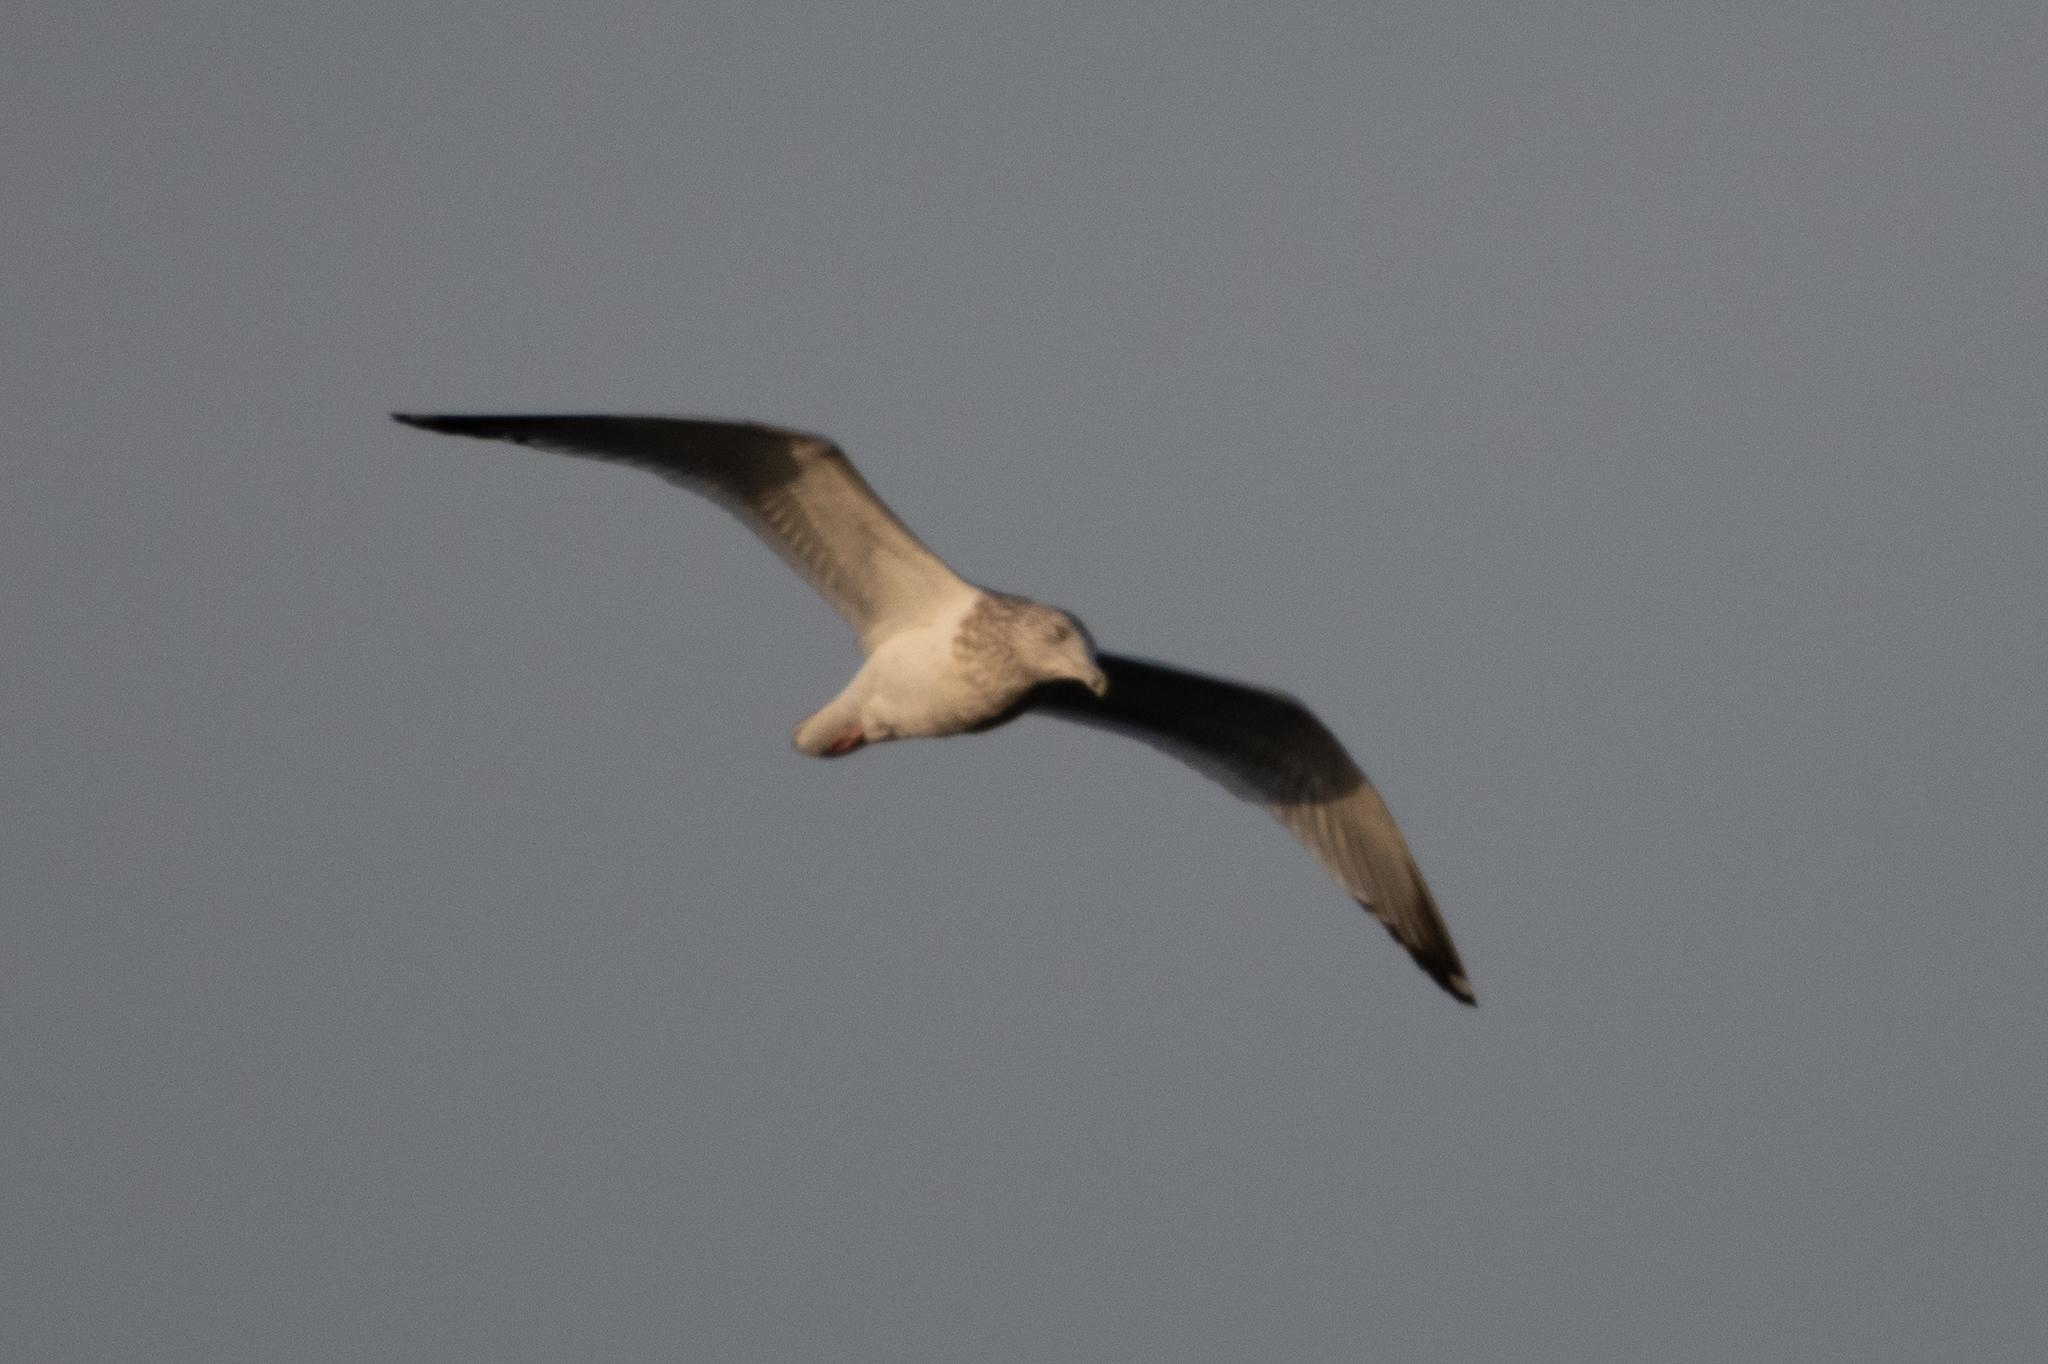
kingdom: Animalia
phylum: Chordata
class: Aves
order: Charadriiformes
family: Laridae
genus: Larus
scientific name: Larus argentatus
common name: Herring gull
